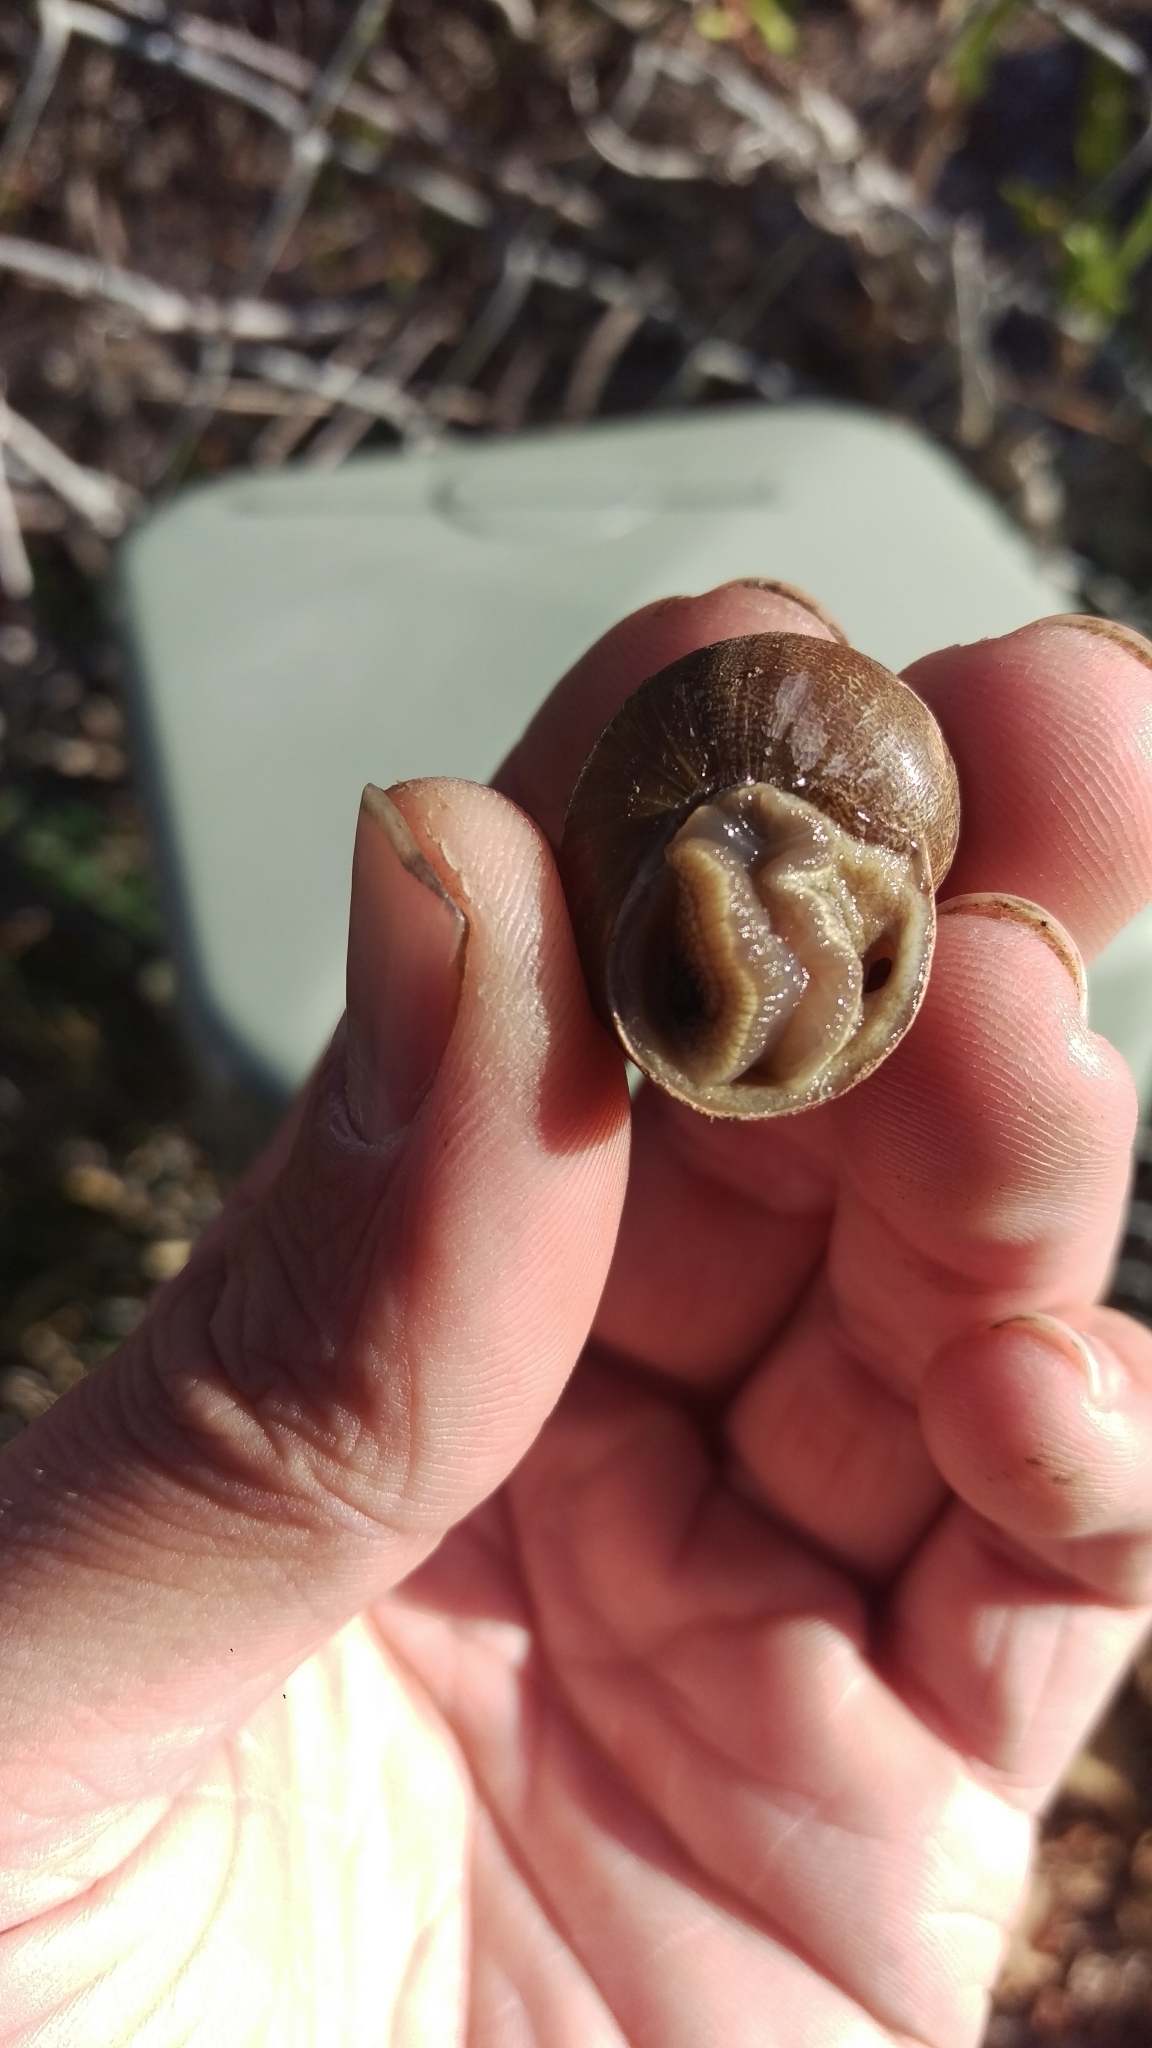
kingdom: Animalia
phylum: Mollusca
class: Gastropoda
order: Stylommatophora
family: Helicidae
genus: Cornu
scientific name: Cornu aspersum
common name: Brown garden snail
